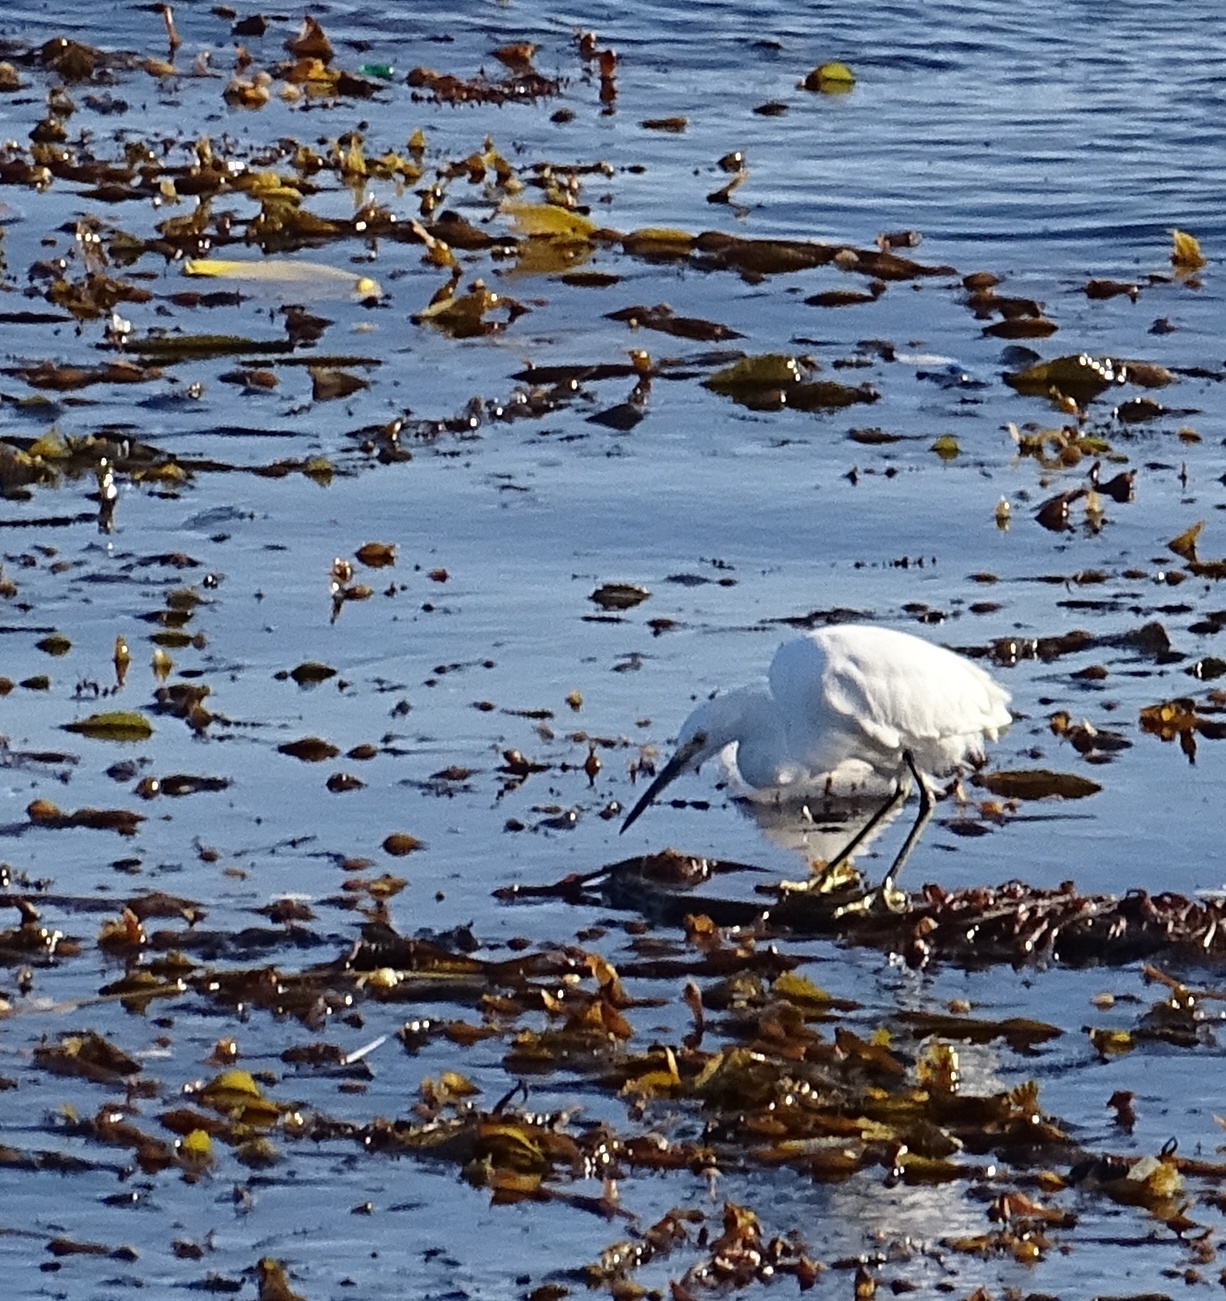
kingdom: Animalia
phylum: Chordata
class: Aves
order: Pelecaniformes
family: Ardeidae
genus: Egretta
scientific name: Egretta thula
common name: Snowy egret
